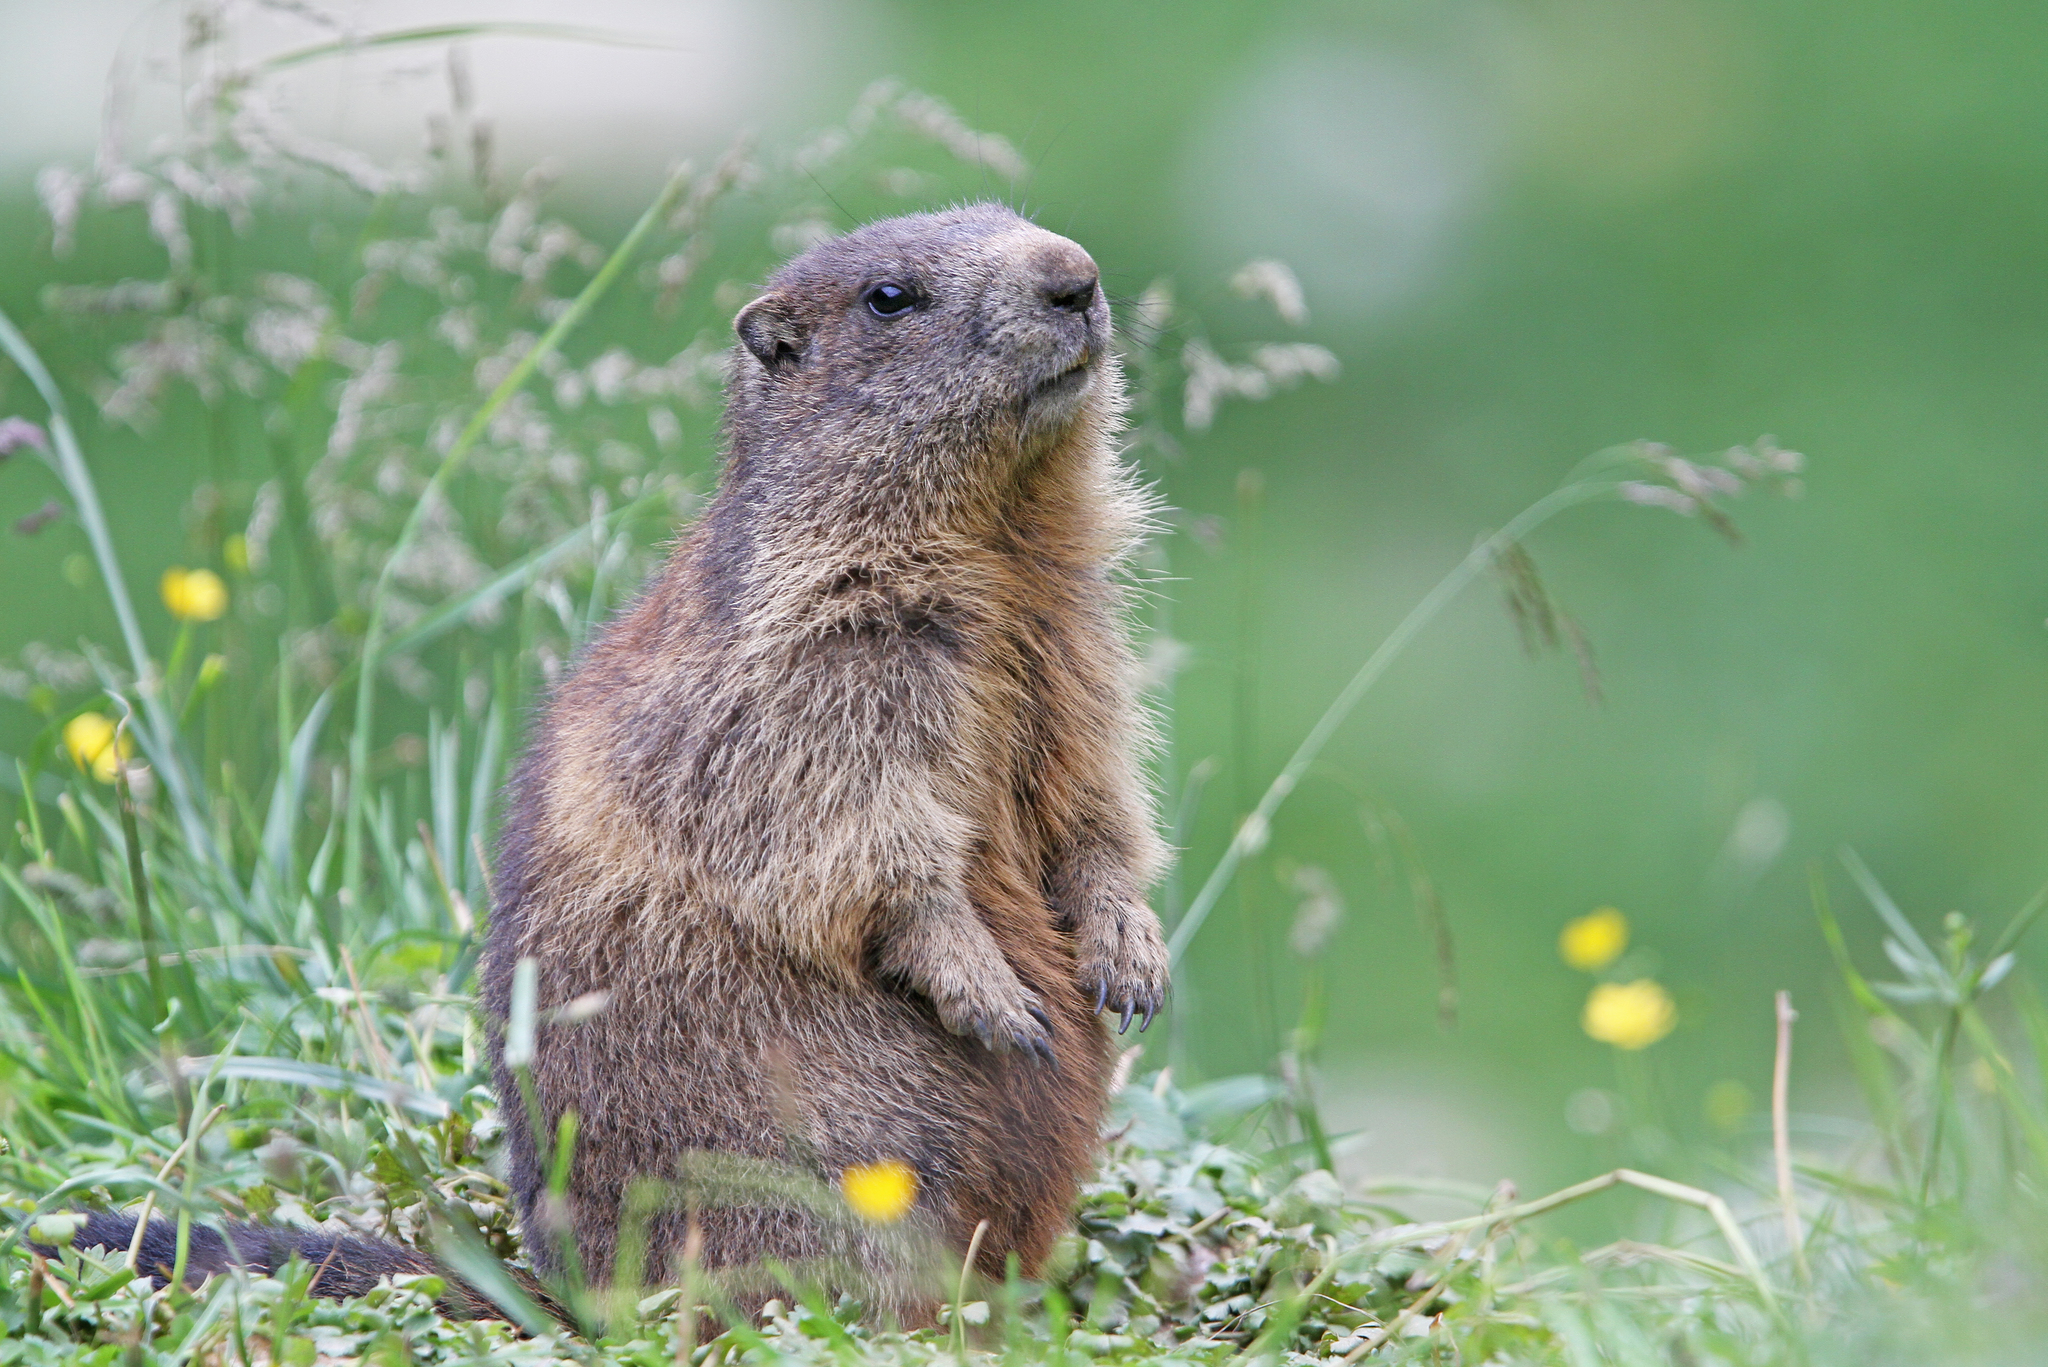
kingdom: Animalia
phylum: Chordata
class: Mammalia
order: Rodentia
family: Sciuridae
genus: Marmota
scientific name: Marmota marmota
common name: Alpine marmot
